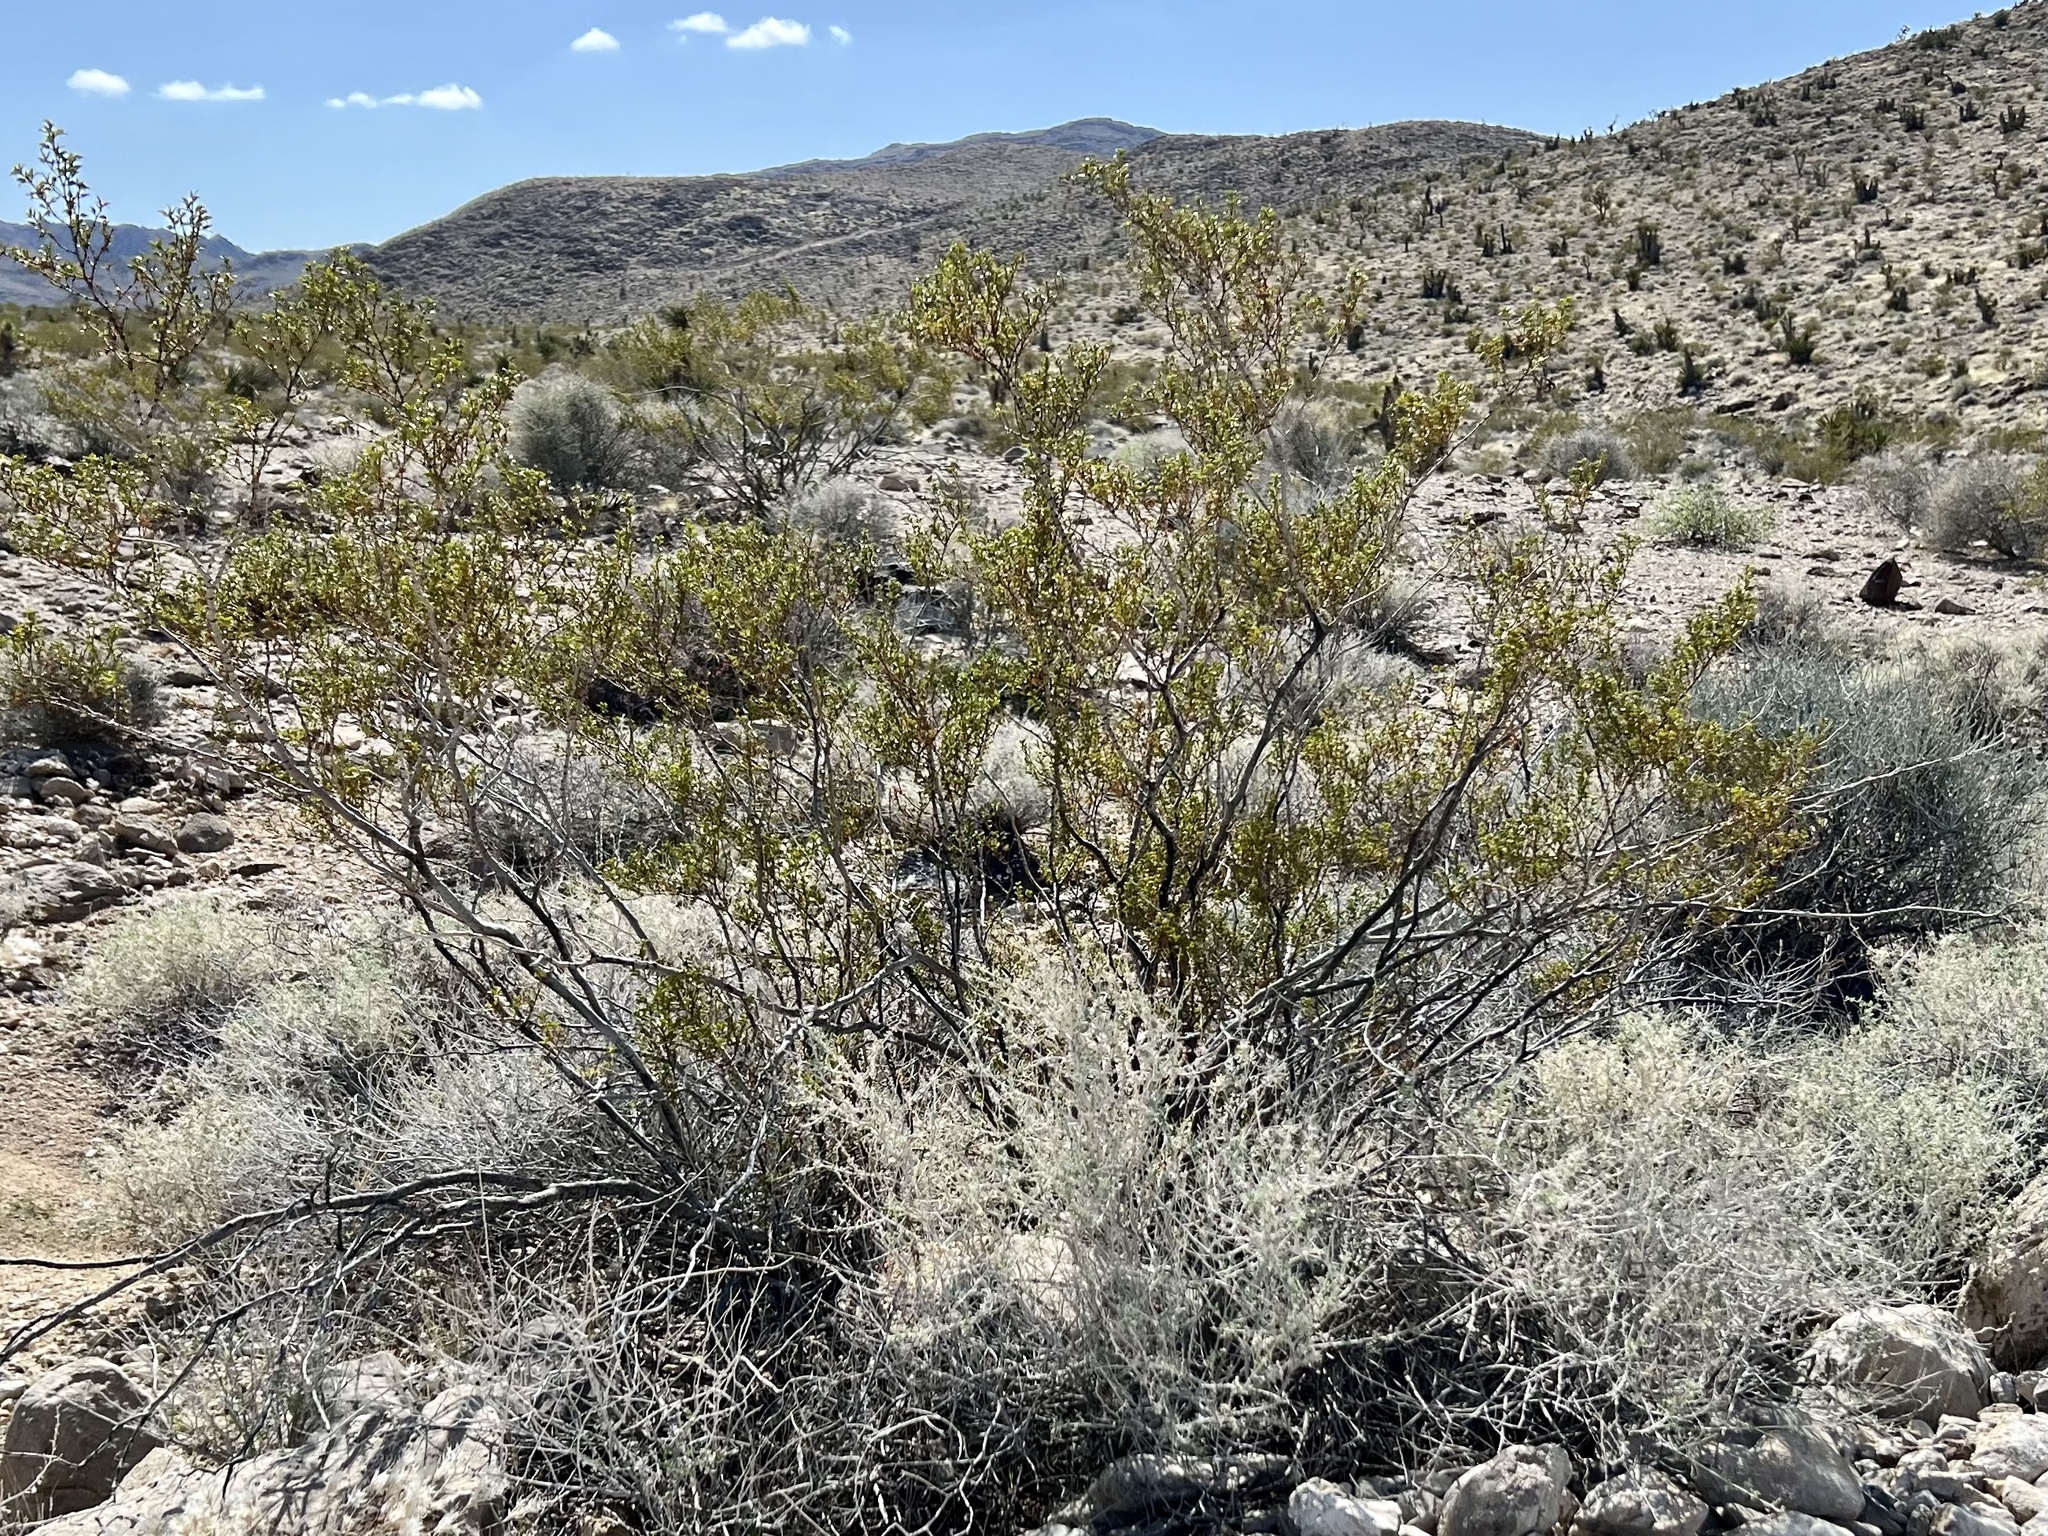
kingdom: Plantae
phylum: Tracheophyta
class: Magnoliopsida
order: Zygophyllales
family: Zygophyllaceae
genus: Larrea
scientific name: Larrea tridentata
